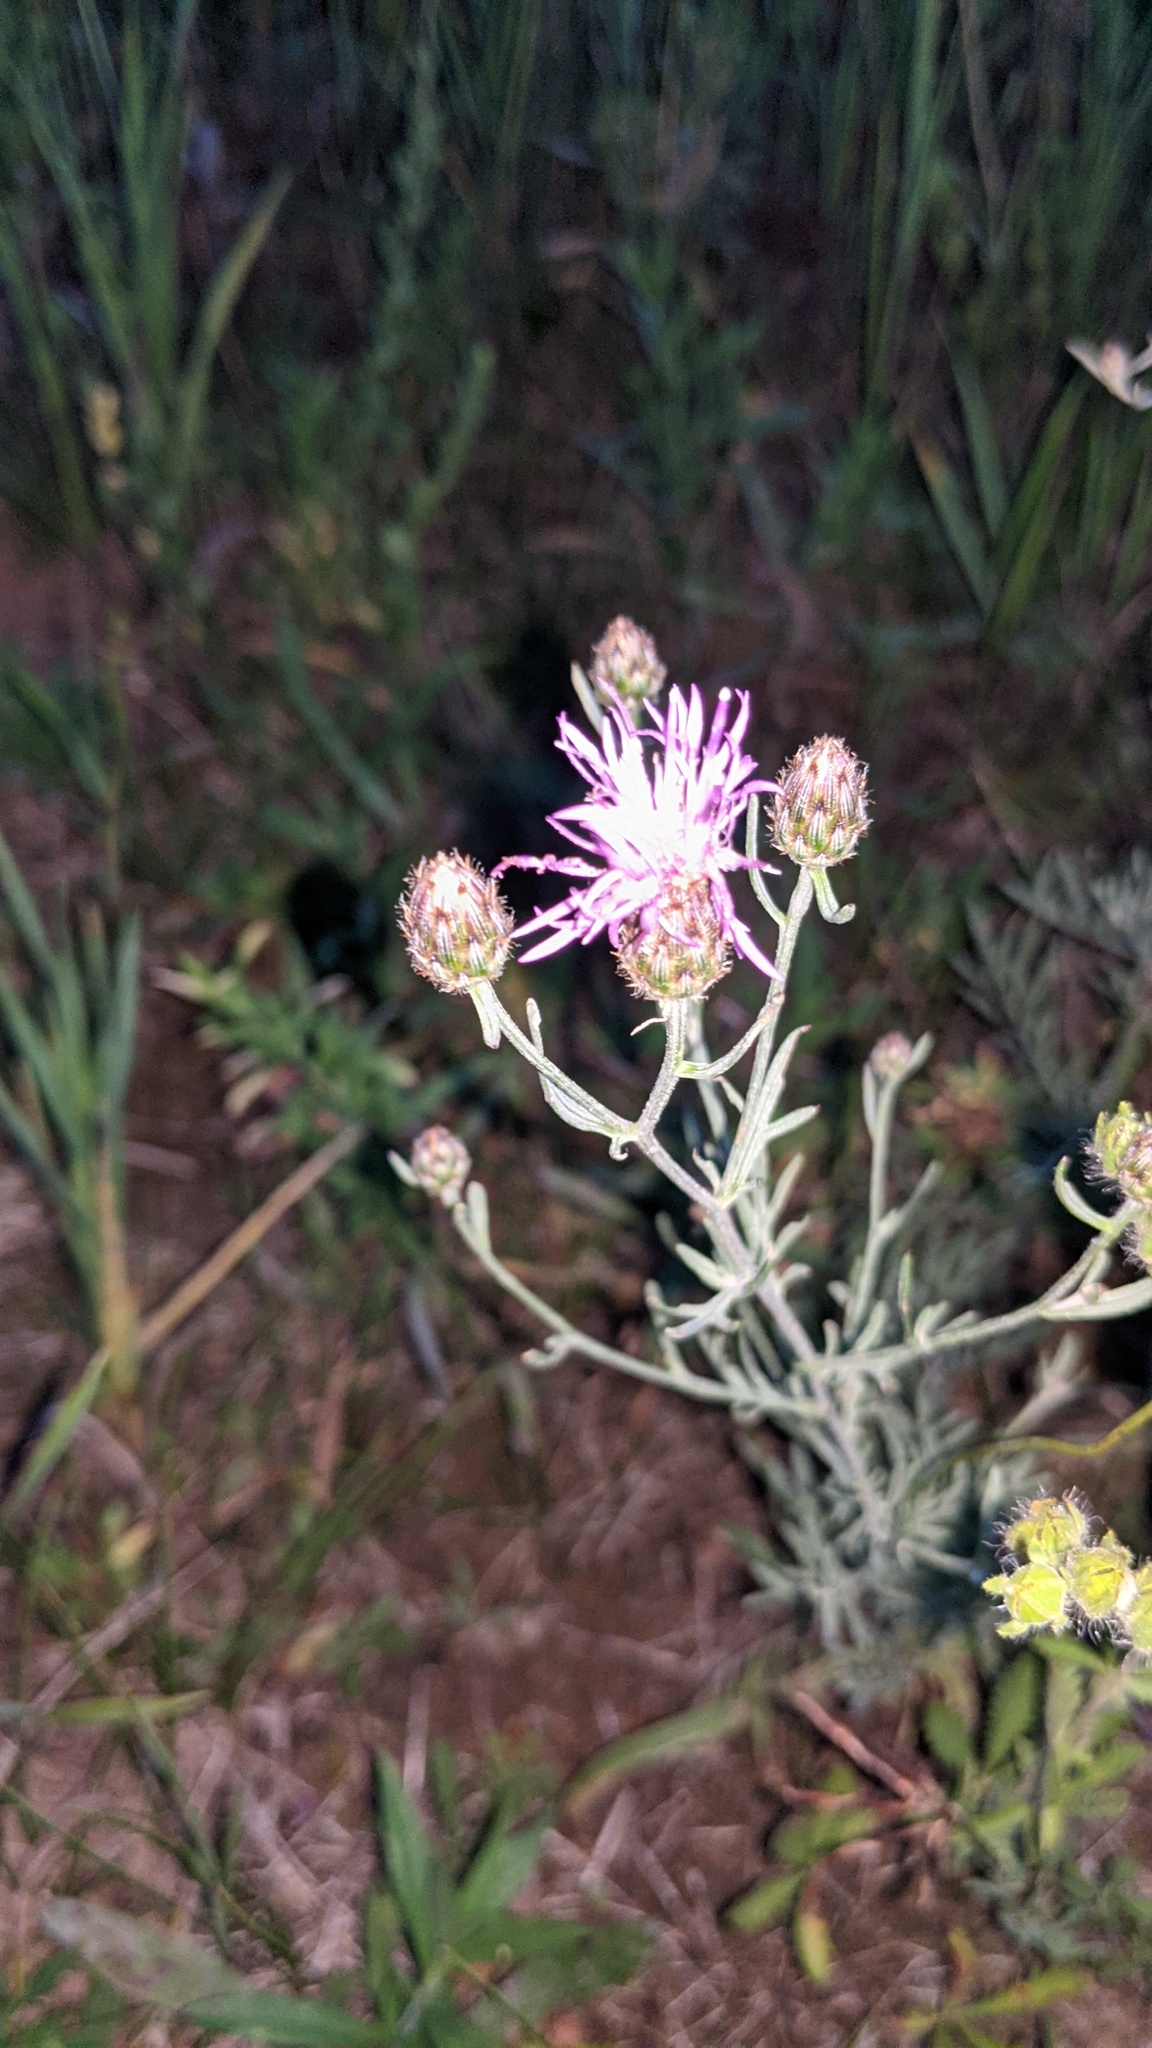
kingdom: Plantae
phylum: Tracheophyta
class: Magnoliopsida
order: Asterales
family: Asteraceae
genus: Centaurea
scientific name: Centaurea stoebe
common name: Spotted knapweed
